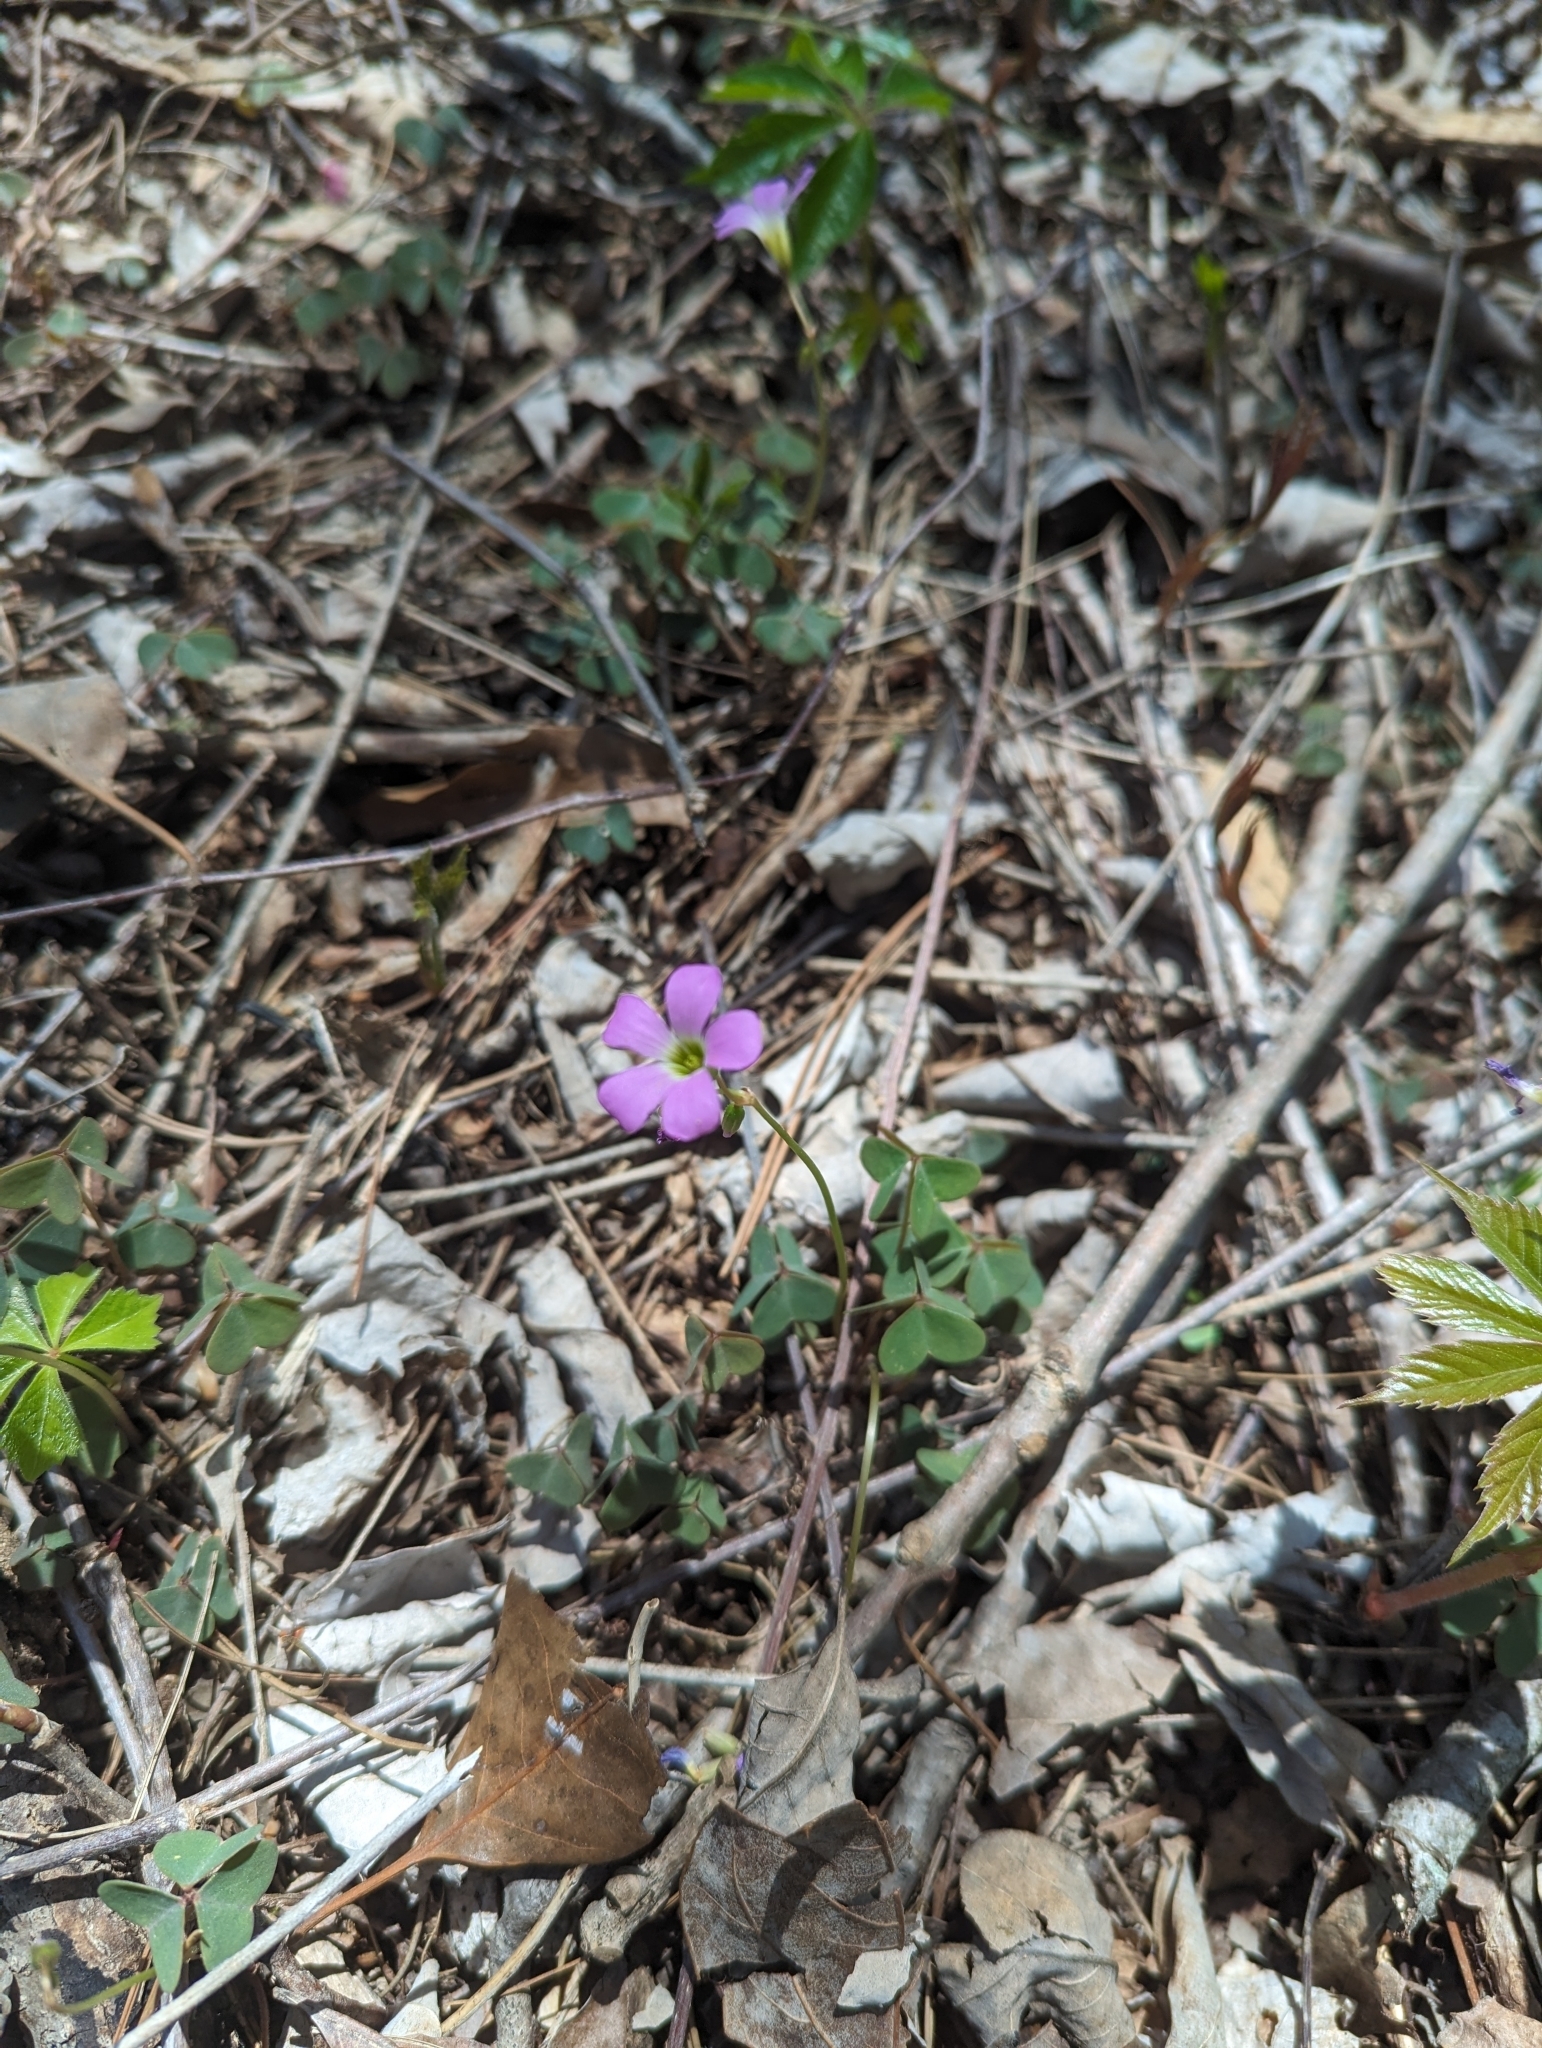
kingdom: Plantae
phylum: Tracheophyta
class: Magnoliopsida
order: Oxalidales
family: Oxalidaceae
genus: Oxalis
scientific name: Oxalis violacea
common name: Violet wood-sorrel
